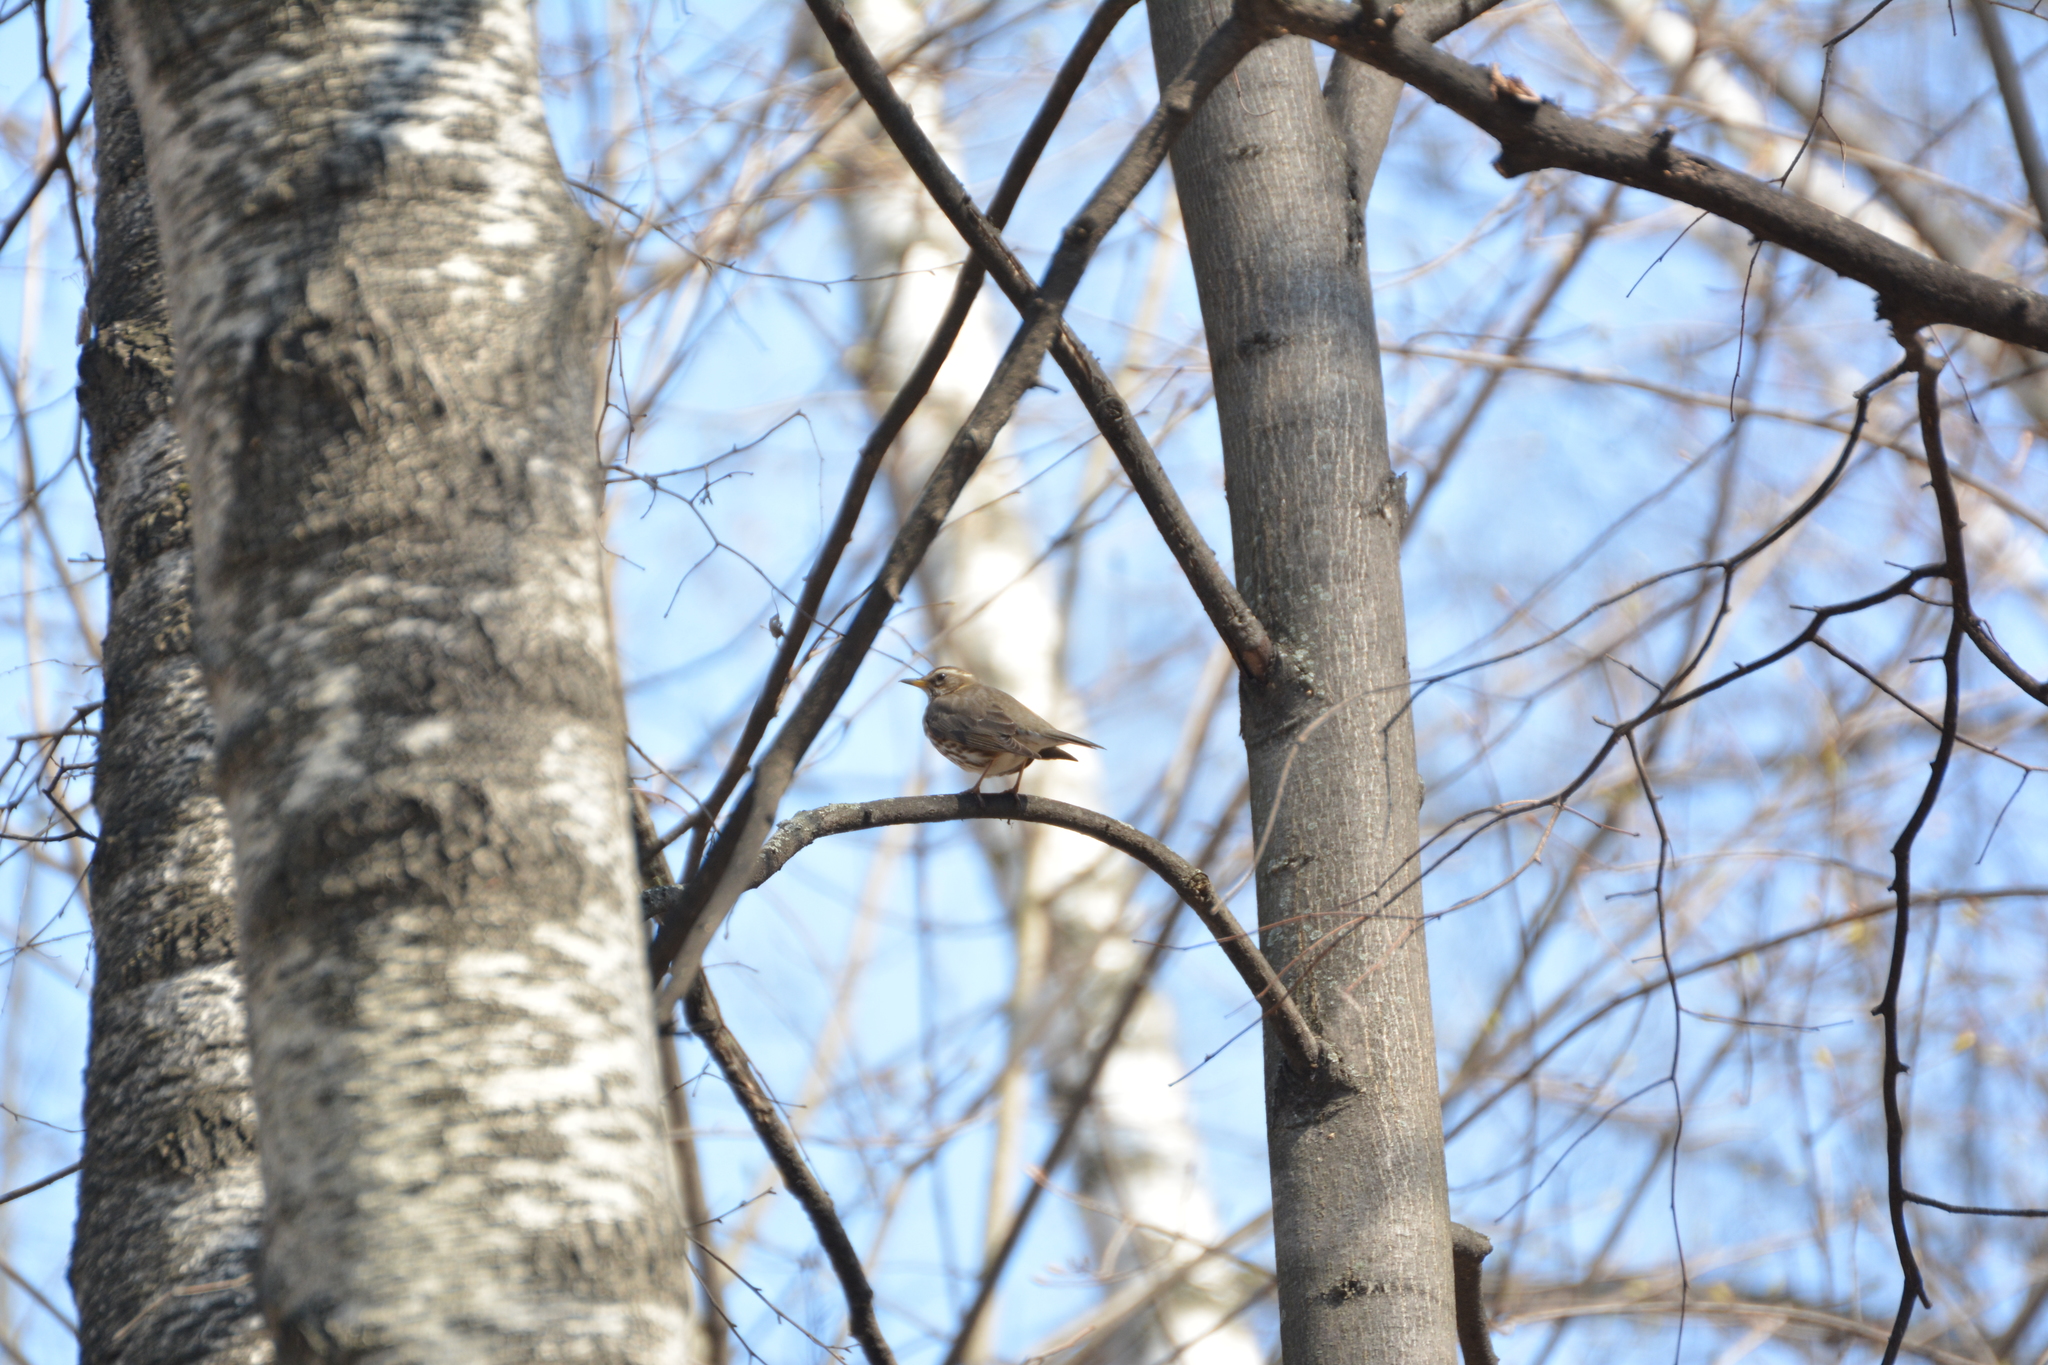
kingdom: Animalia
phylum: Chordata
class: Aves
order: Passeriformes
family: Turdidae
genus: Turdus
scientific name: Turdus iliacus
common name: Redwing
